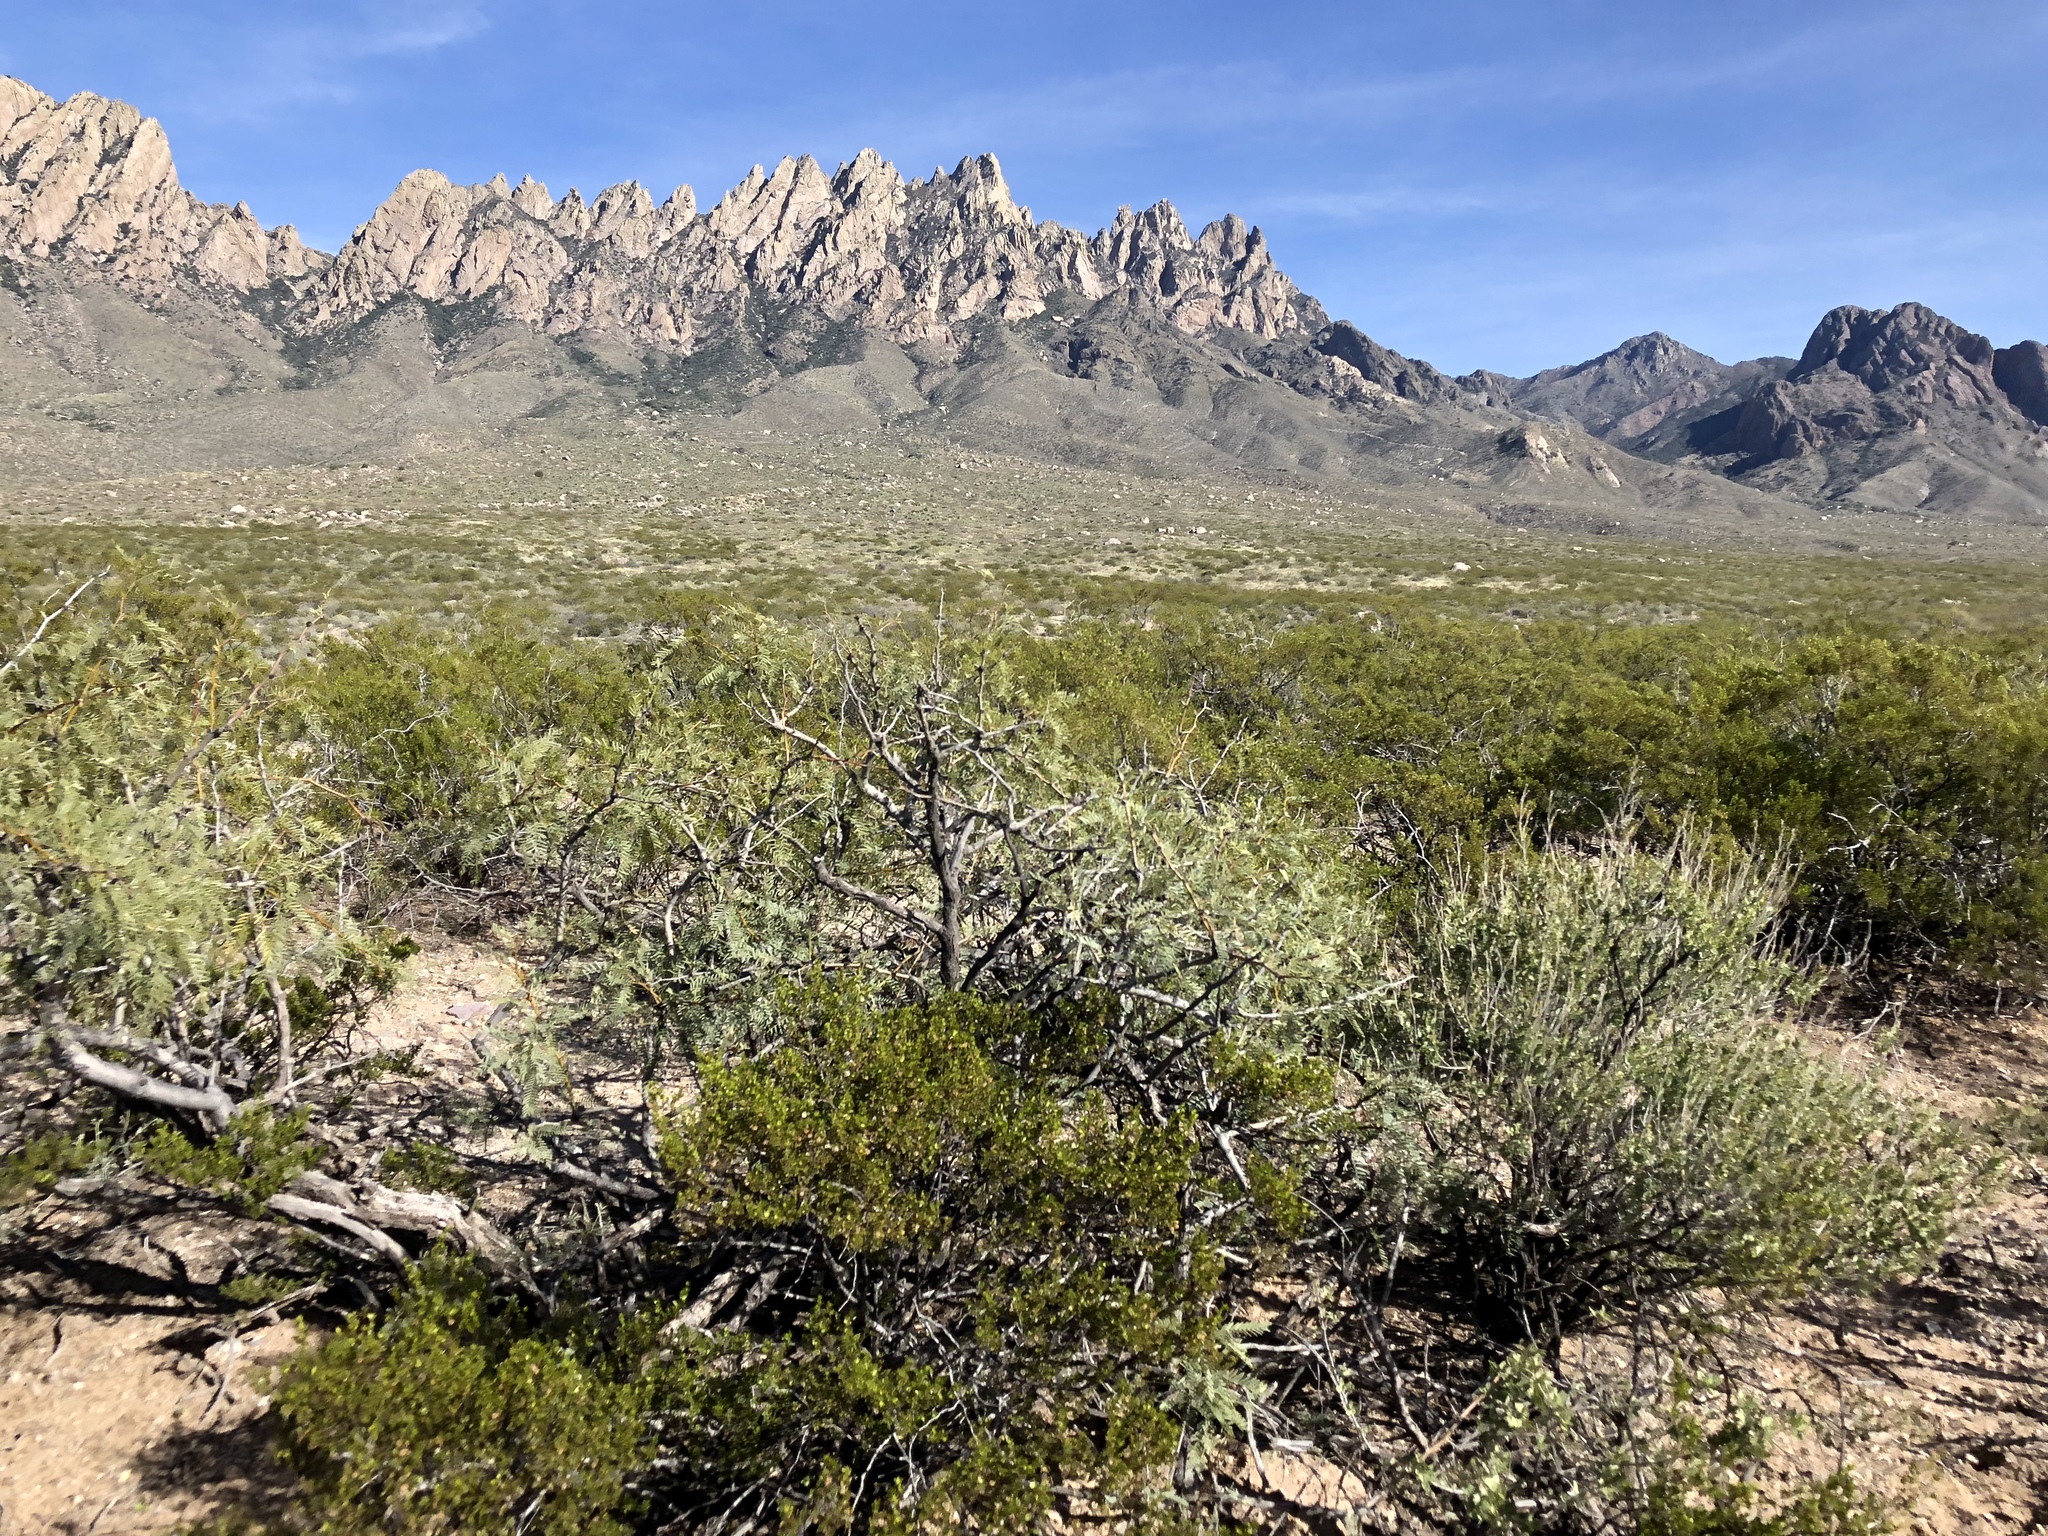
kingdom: Plantae
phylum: Tracheophyta
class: Magnoliopsida
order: Zygophyllales
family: Zygophyllaceae
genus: Larrea
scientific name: Larrea tridentata
